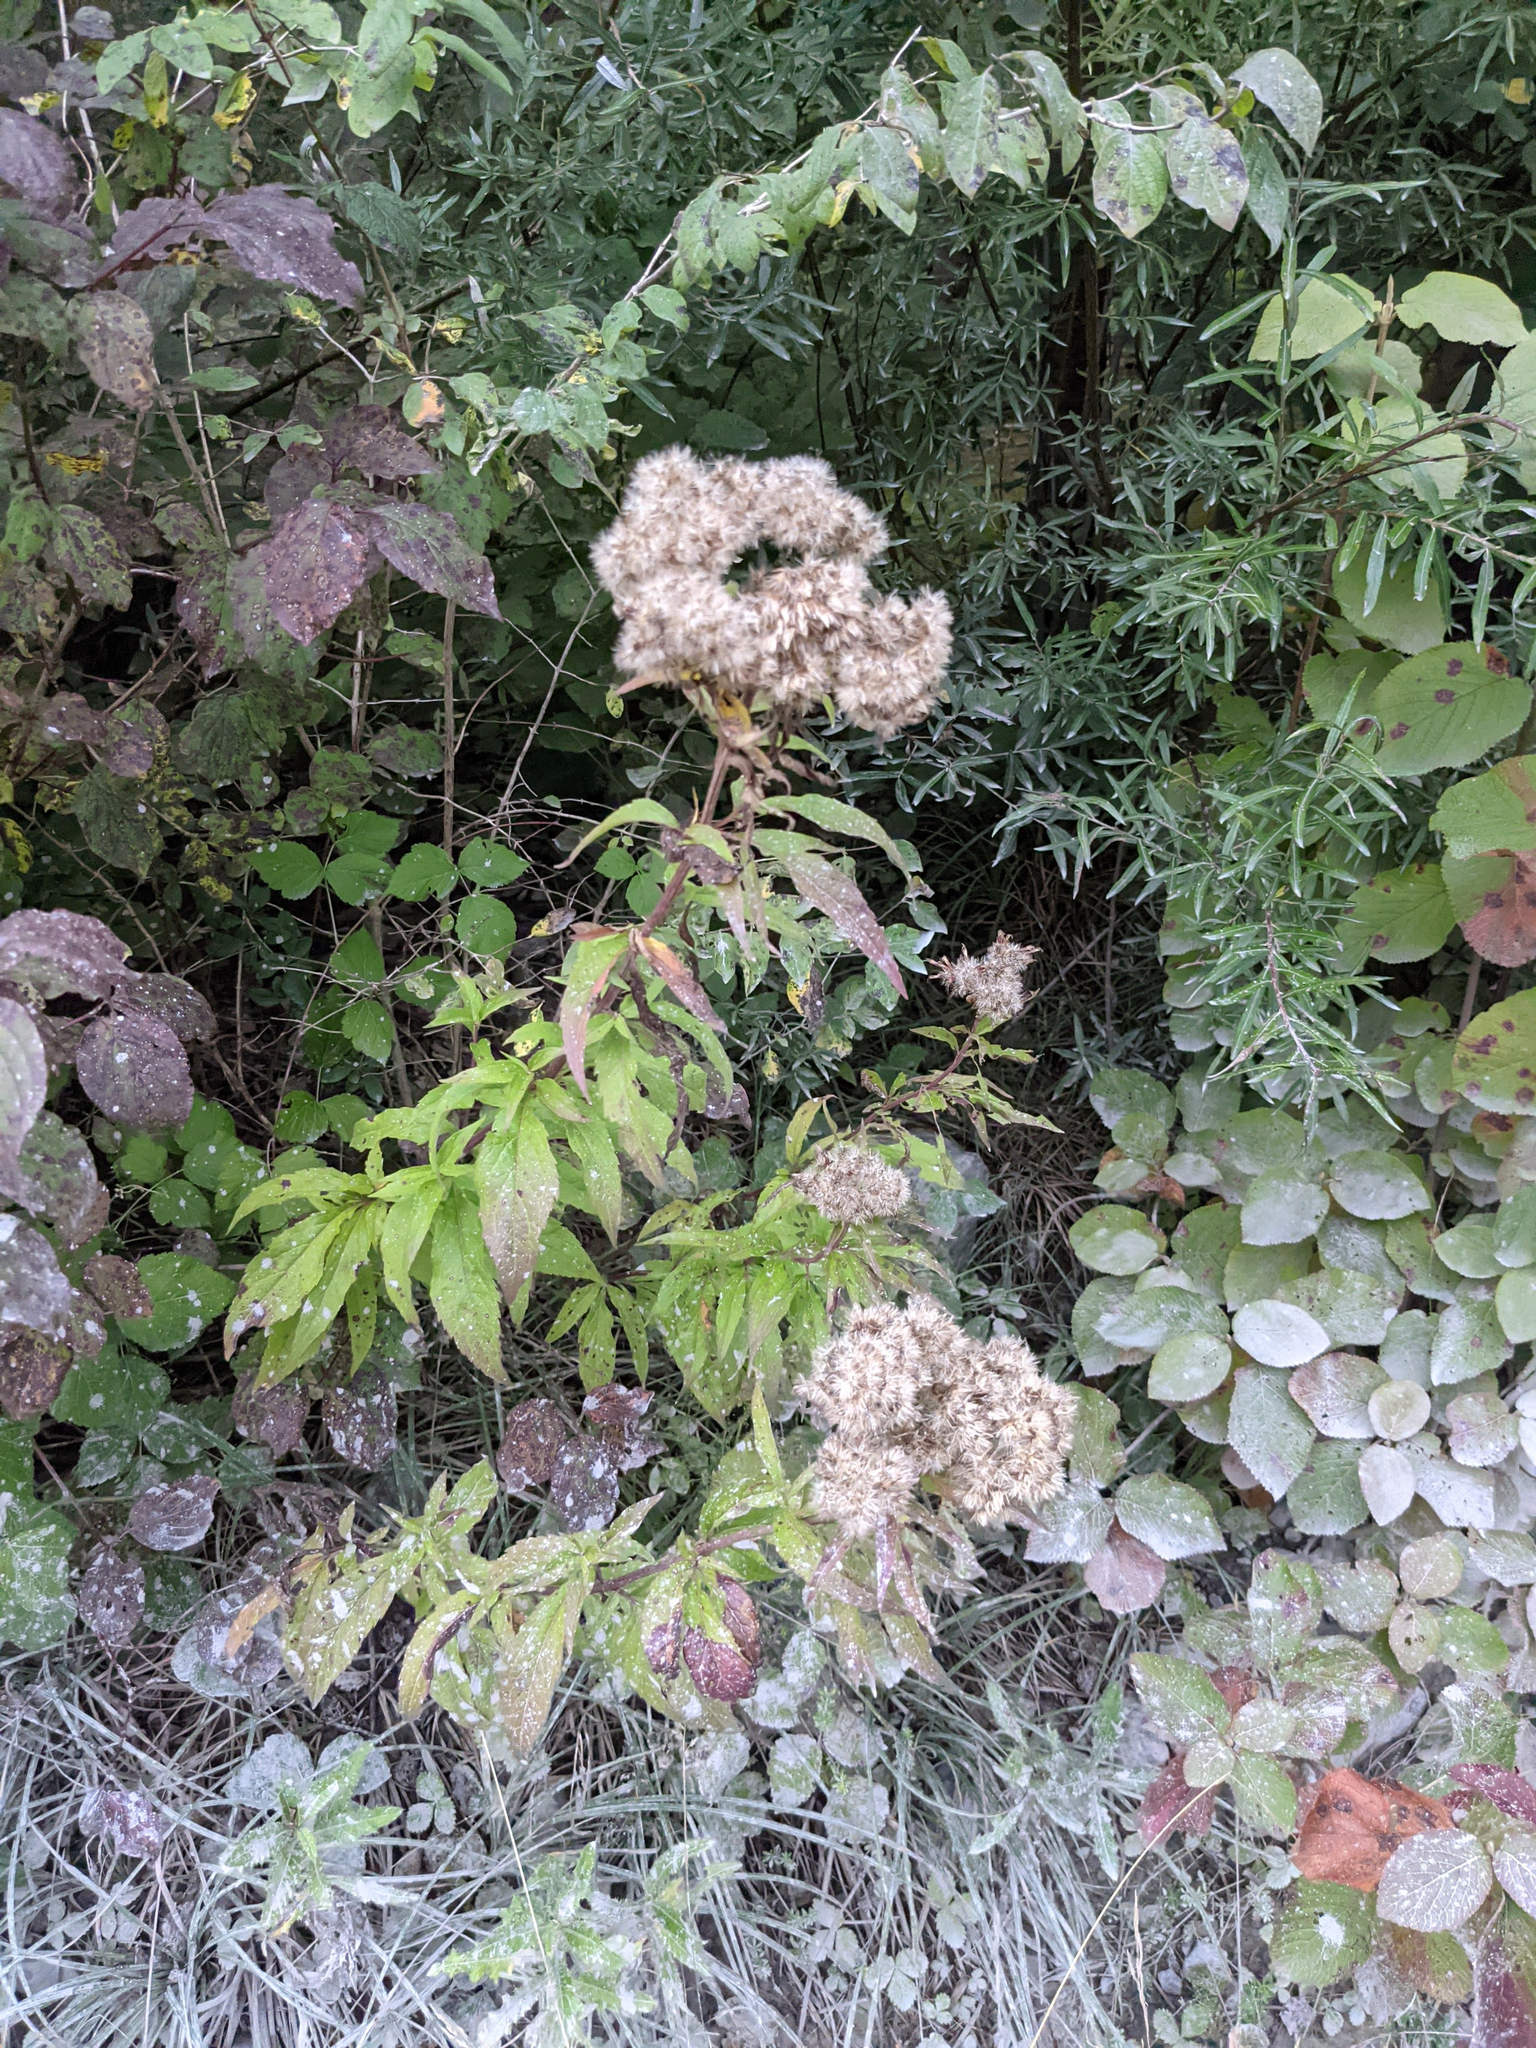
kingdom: Plantae
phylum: Tracheophyta
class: Magnoliopsida
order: Asterales
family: Asteraceae
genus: Eupatorium
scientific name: Eupatorium cannabinum
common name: Hemp-agrimony
